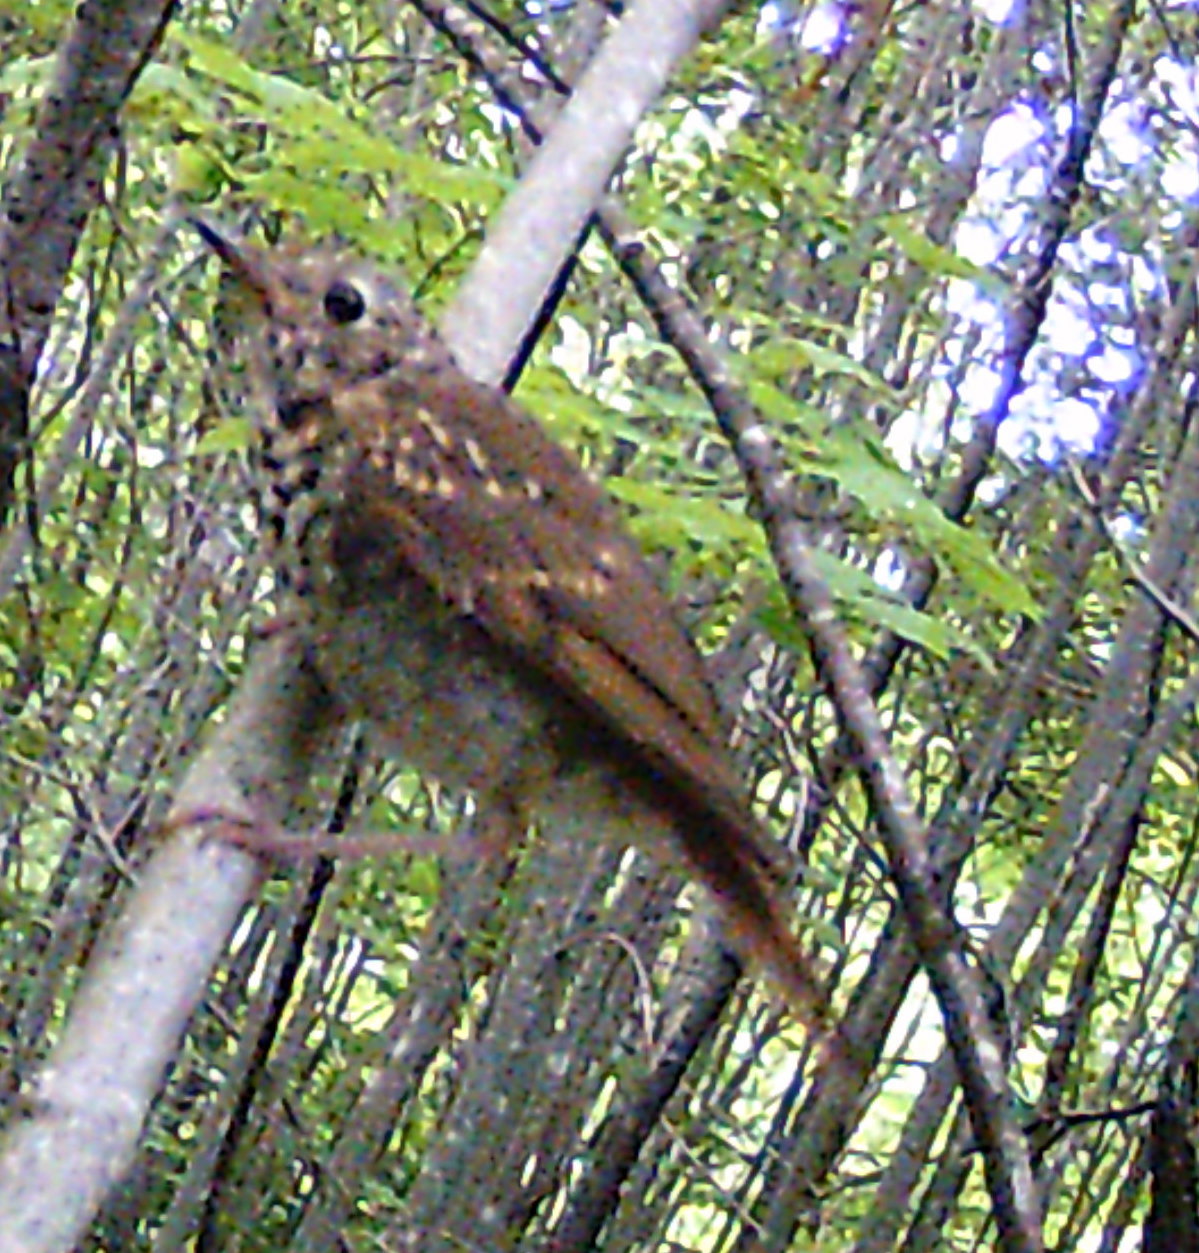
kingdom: Animalia
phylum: Chordata
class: Aves
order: Passeriformes
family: Turdidae
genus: Catharus
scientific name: Catharus guttatus
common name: Hermit thrush
